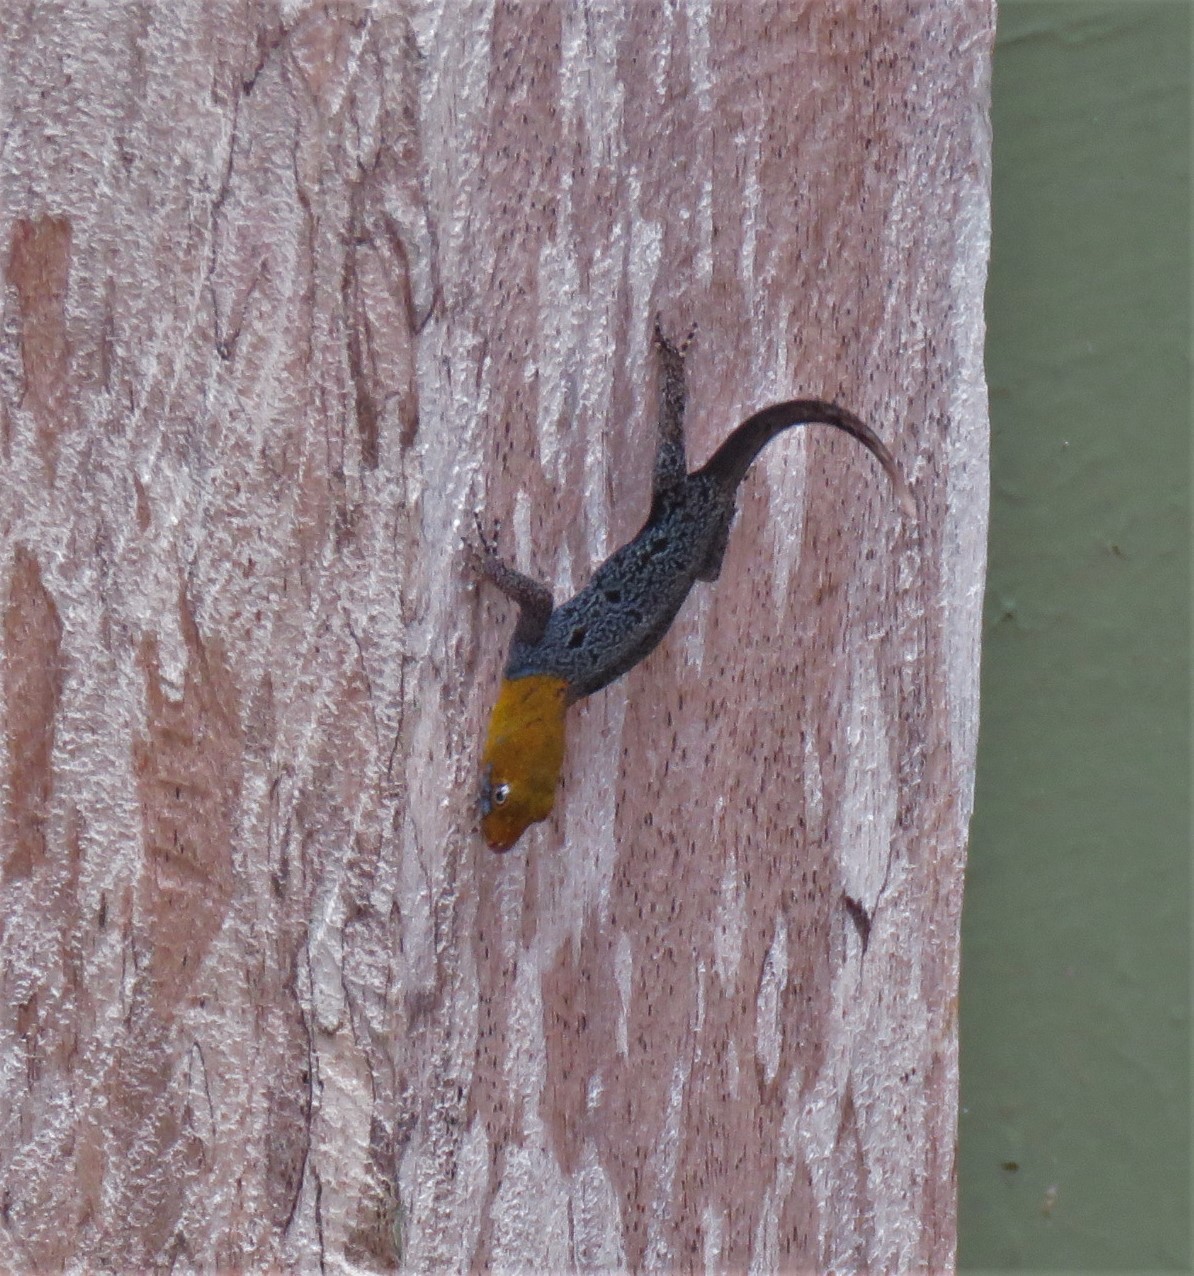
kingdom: Animalia
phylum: Chordata
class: Squamata
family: Sphaerodactylidae
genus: Gonatodes
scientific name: Gonatodes albogularis
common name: Yellow-headed gecko
